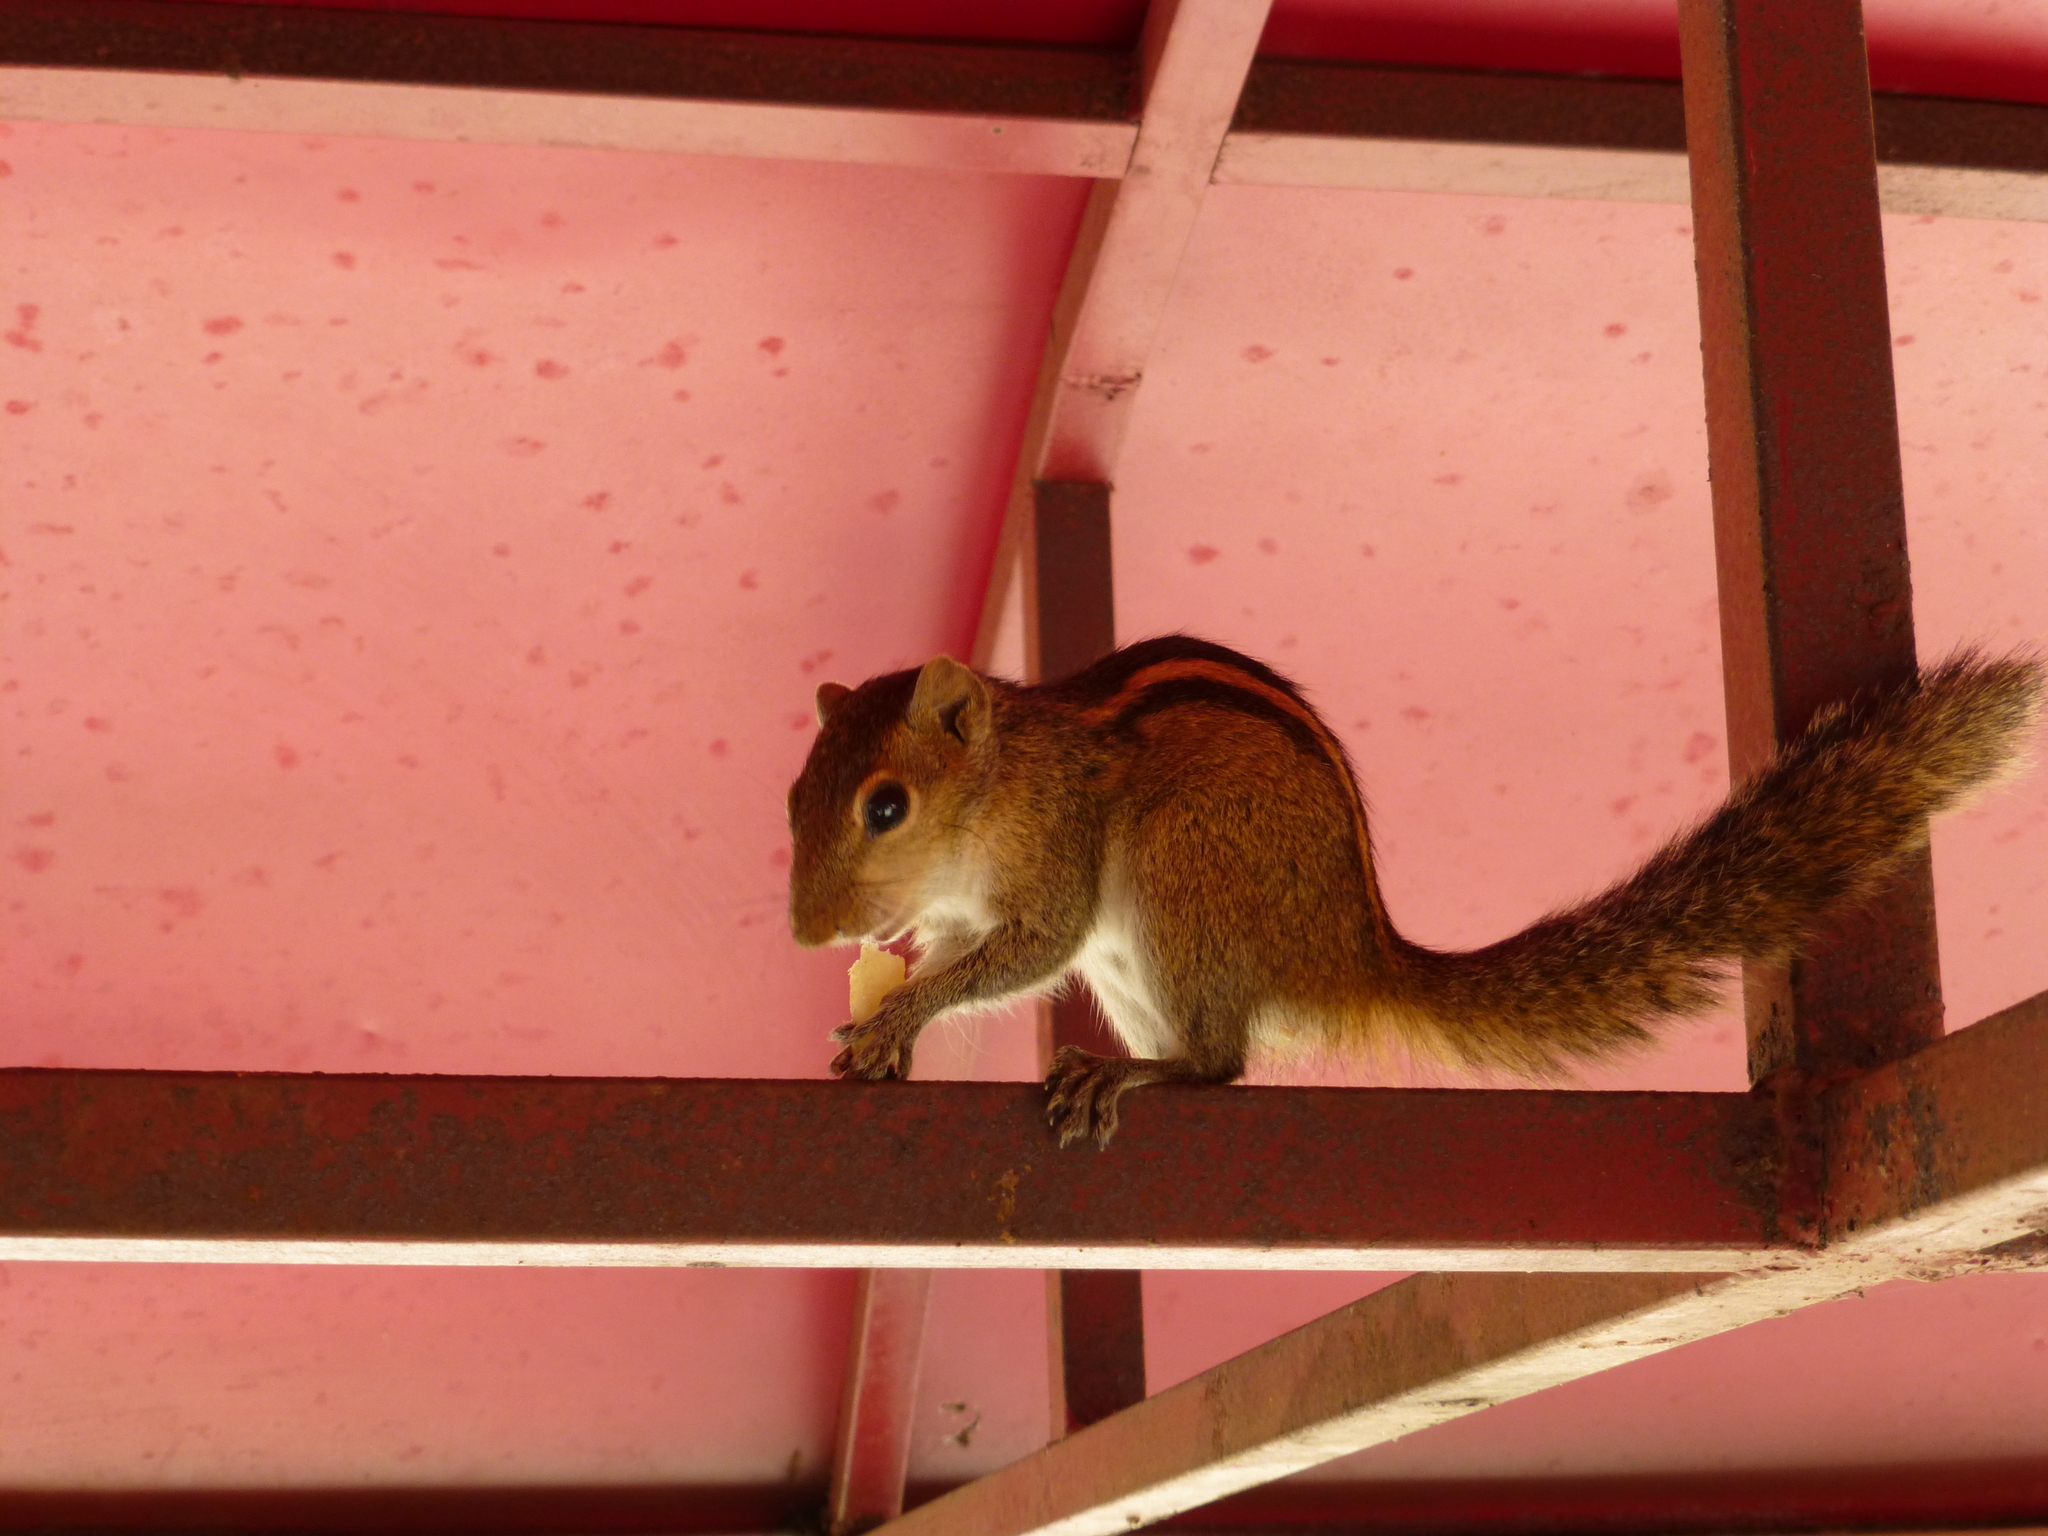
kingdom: Animalia
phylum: Chordata
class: Mammalia
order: Rodentia
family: Sciuridae
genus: Funambulus
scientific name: Funambulus palmarum
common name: Indian palm squirrel
